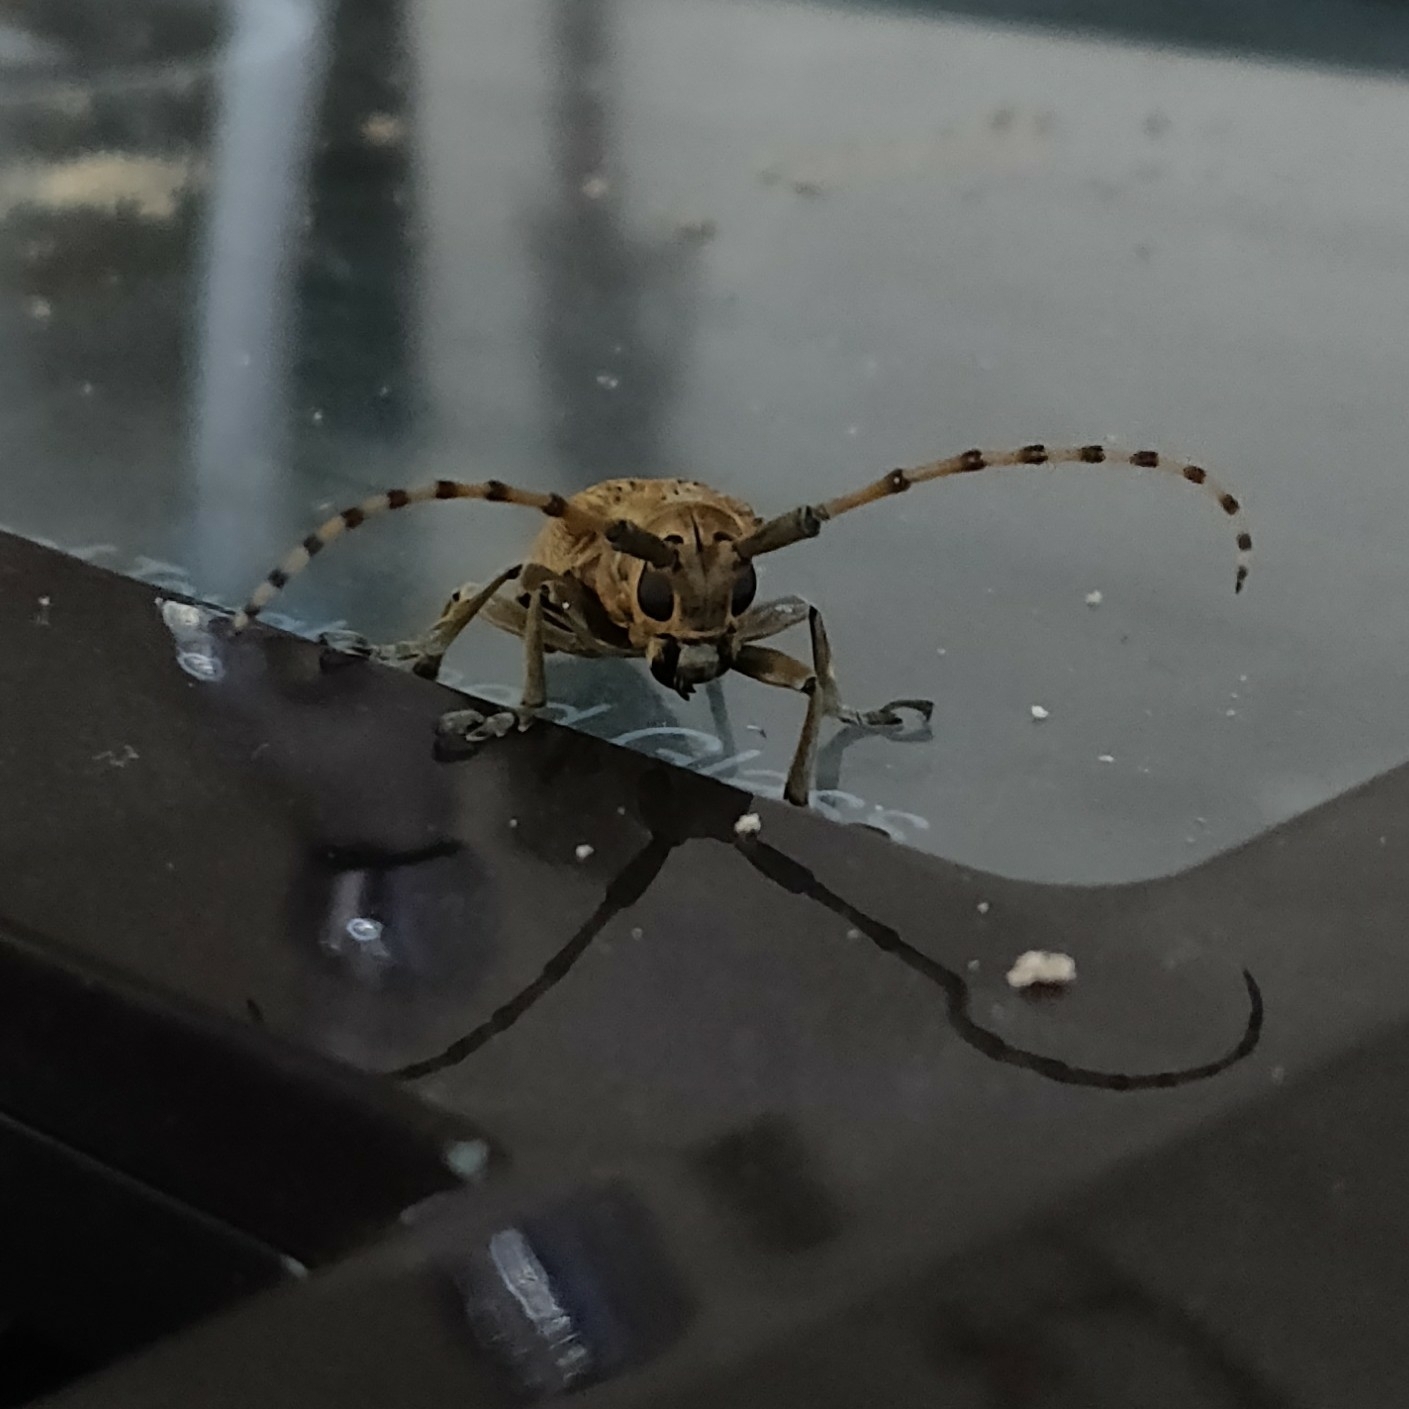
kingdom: Animalia
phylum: Arthropoda
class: Insecta
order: Coleoptera
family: Cerambycidae
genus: Cerosterna
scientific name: Cerosterna scabrator
